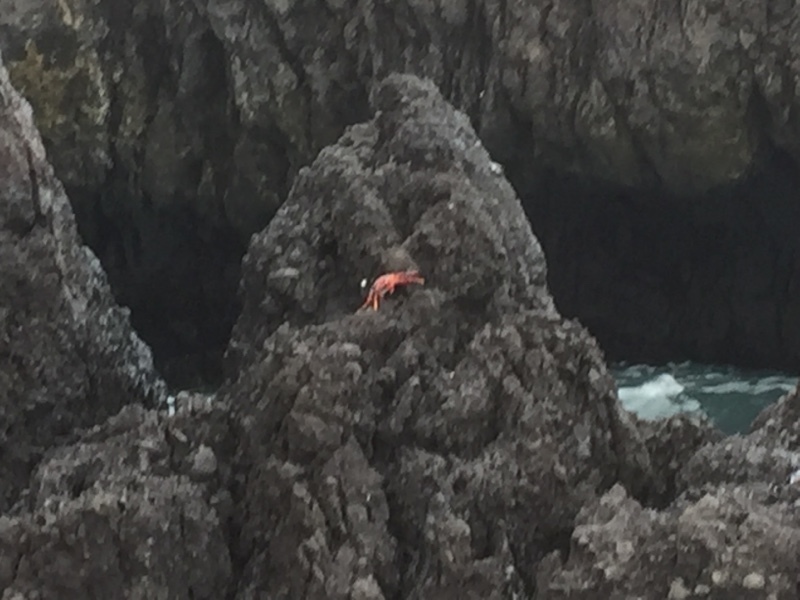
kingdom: Animalia
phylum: Arthropoda
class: Malacostraca
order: Decapoda
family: Grapsidae
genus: Grapsus
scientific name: Grapsus adscensionis
